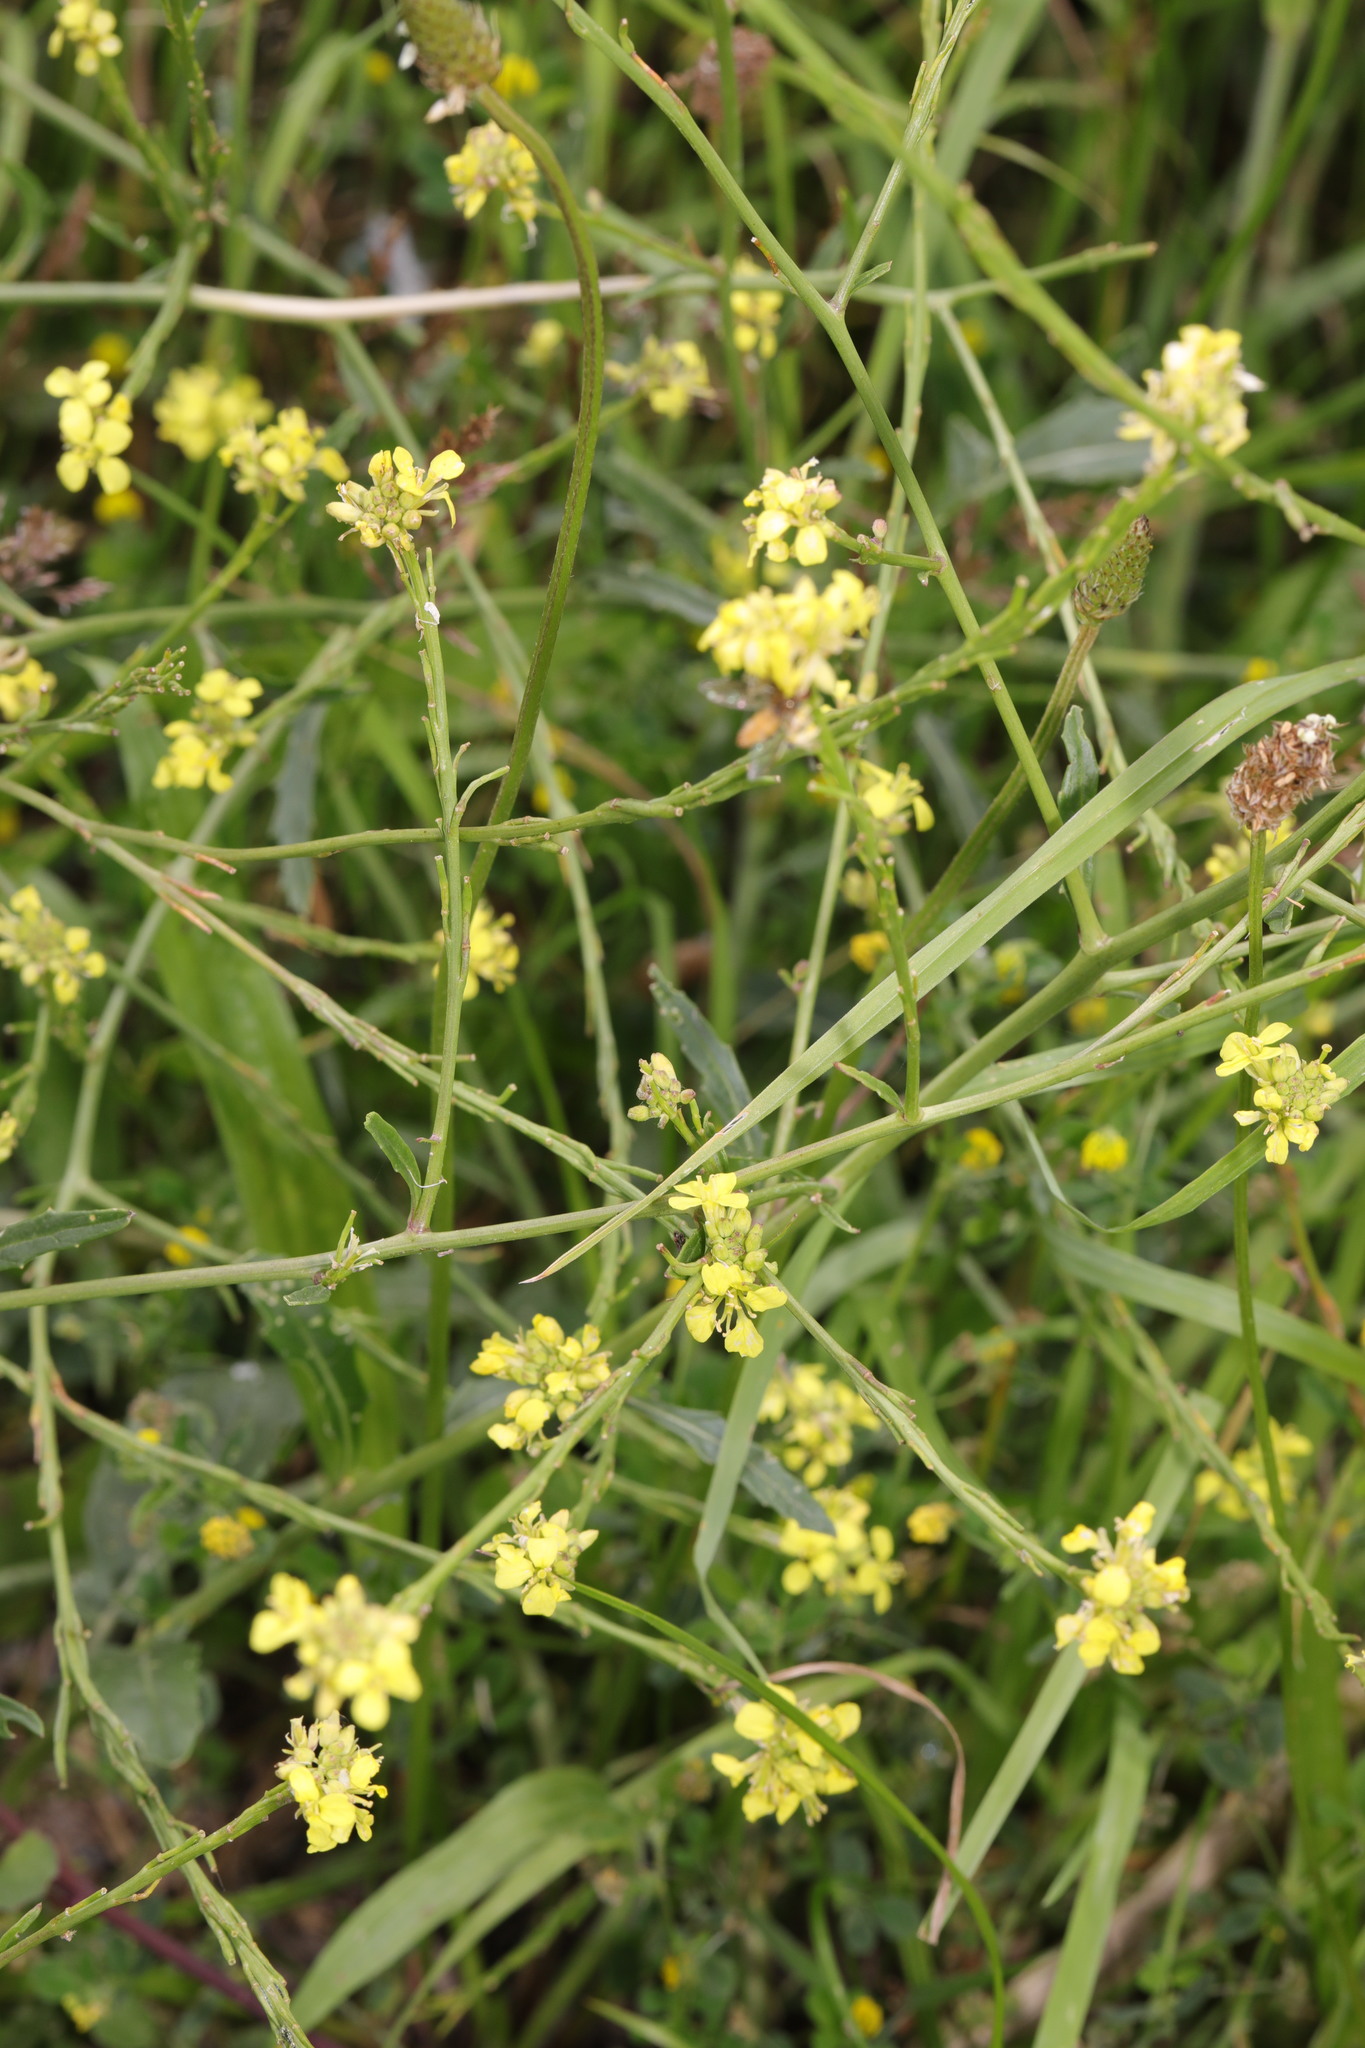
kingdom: Plantae
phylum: Tracheophyta
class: Magnoliopsida
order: Brassicales
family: Brassicaceae
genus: Sisymbrium
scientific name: Sisymbrium officinale
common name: Hedge mustard
